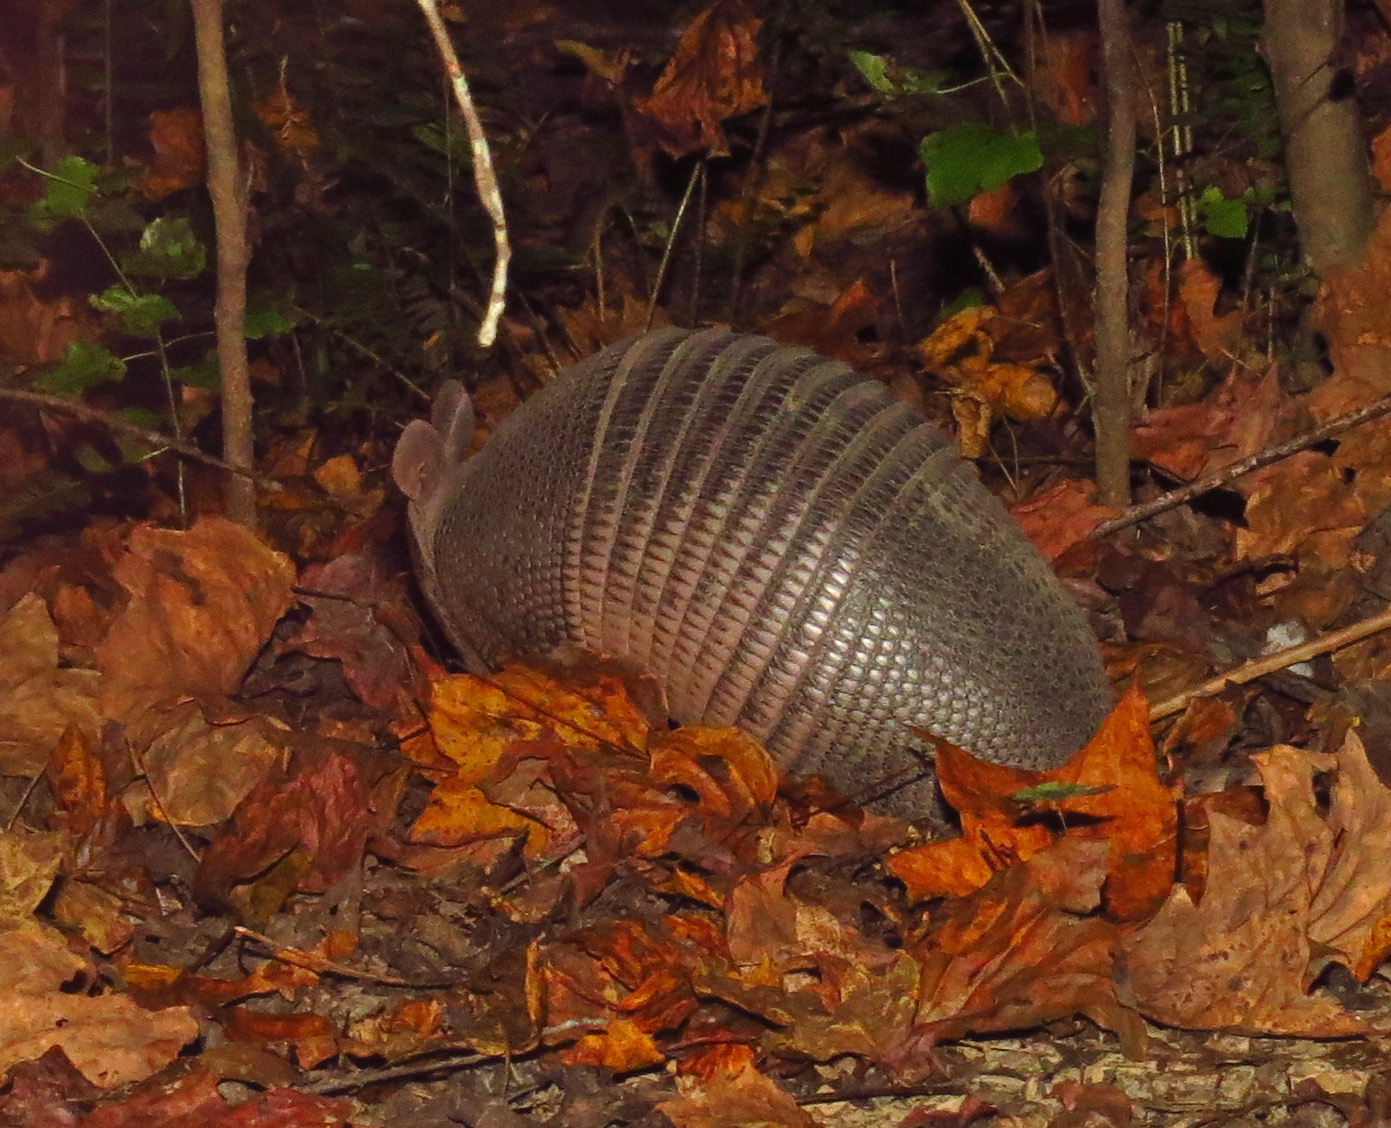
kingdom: Animalia
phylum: Chordata
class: Mammalia
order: Cingulata
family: Dasypodidae
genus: Dasypus
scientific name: Dasypus novemcinctus
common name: Nine-banded armadillo
